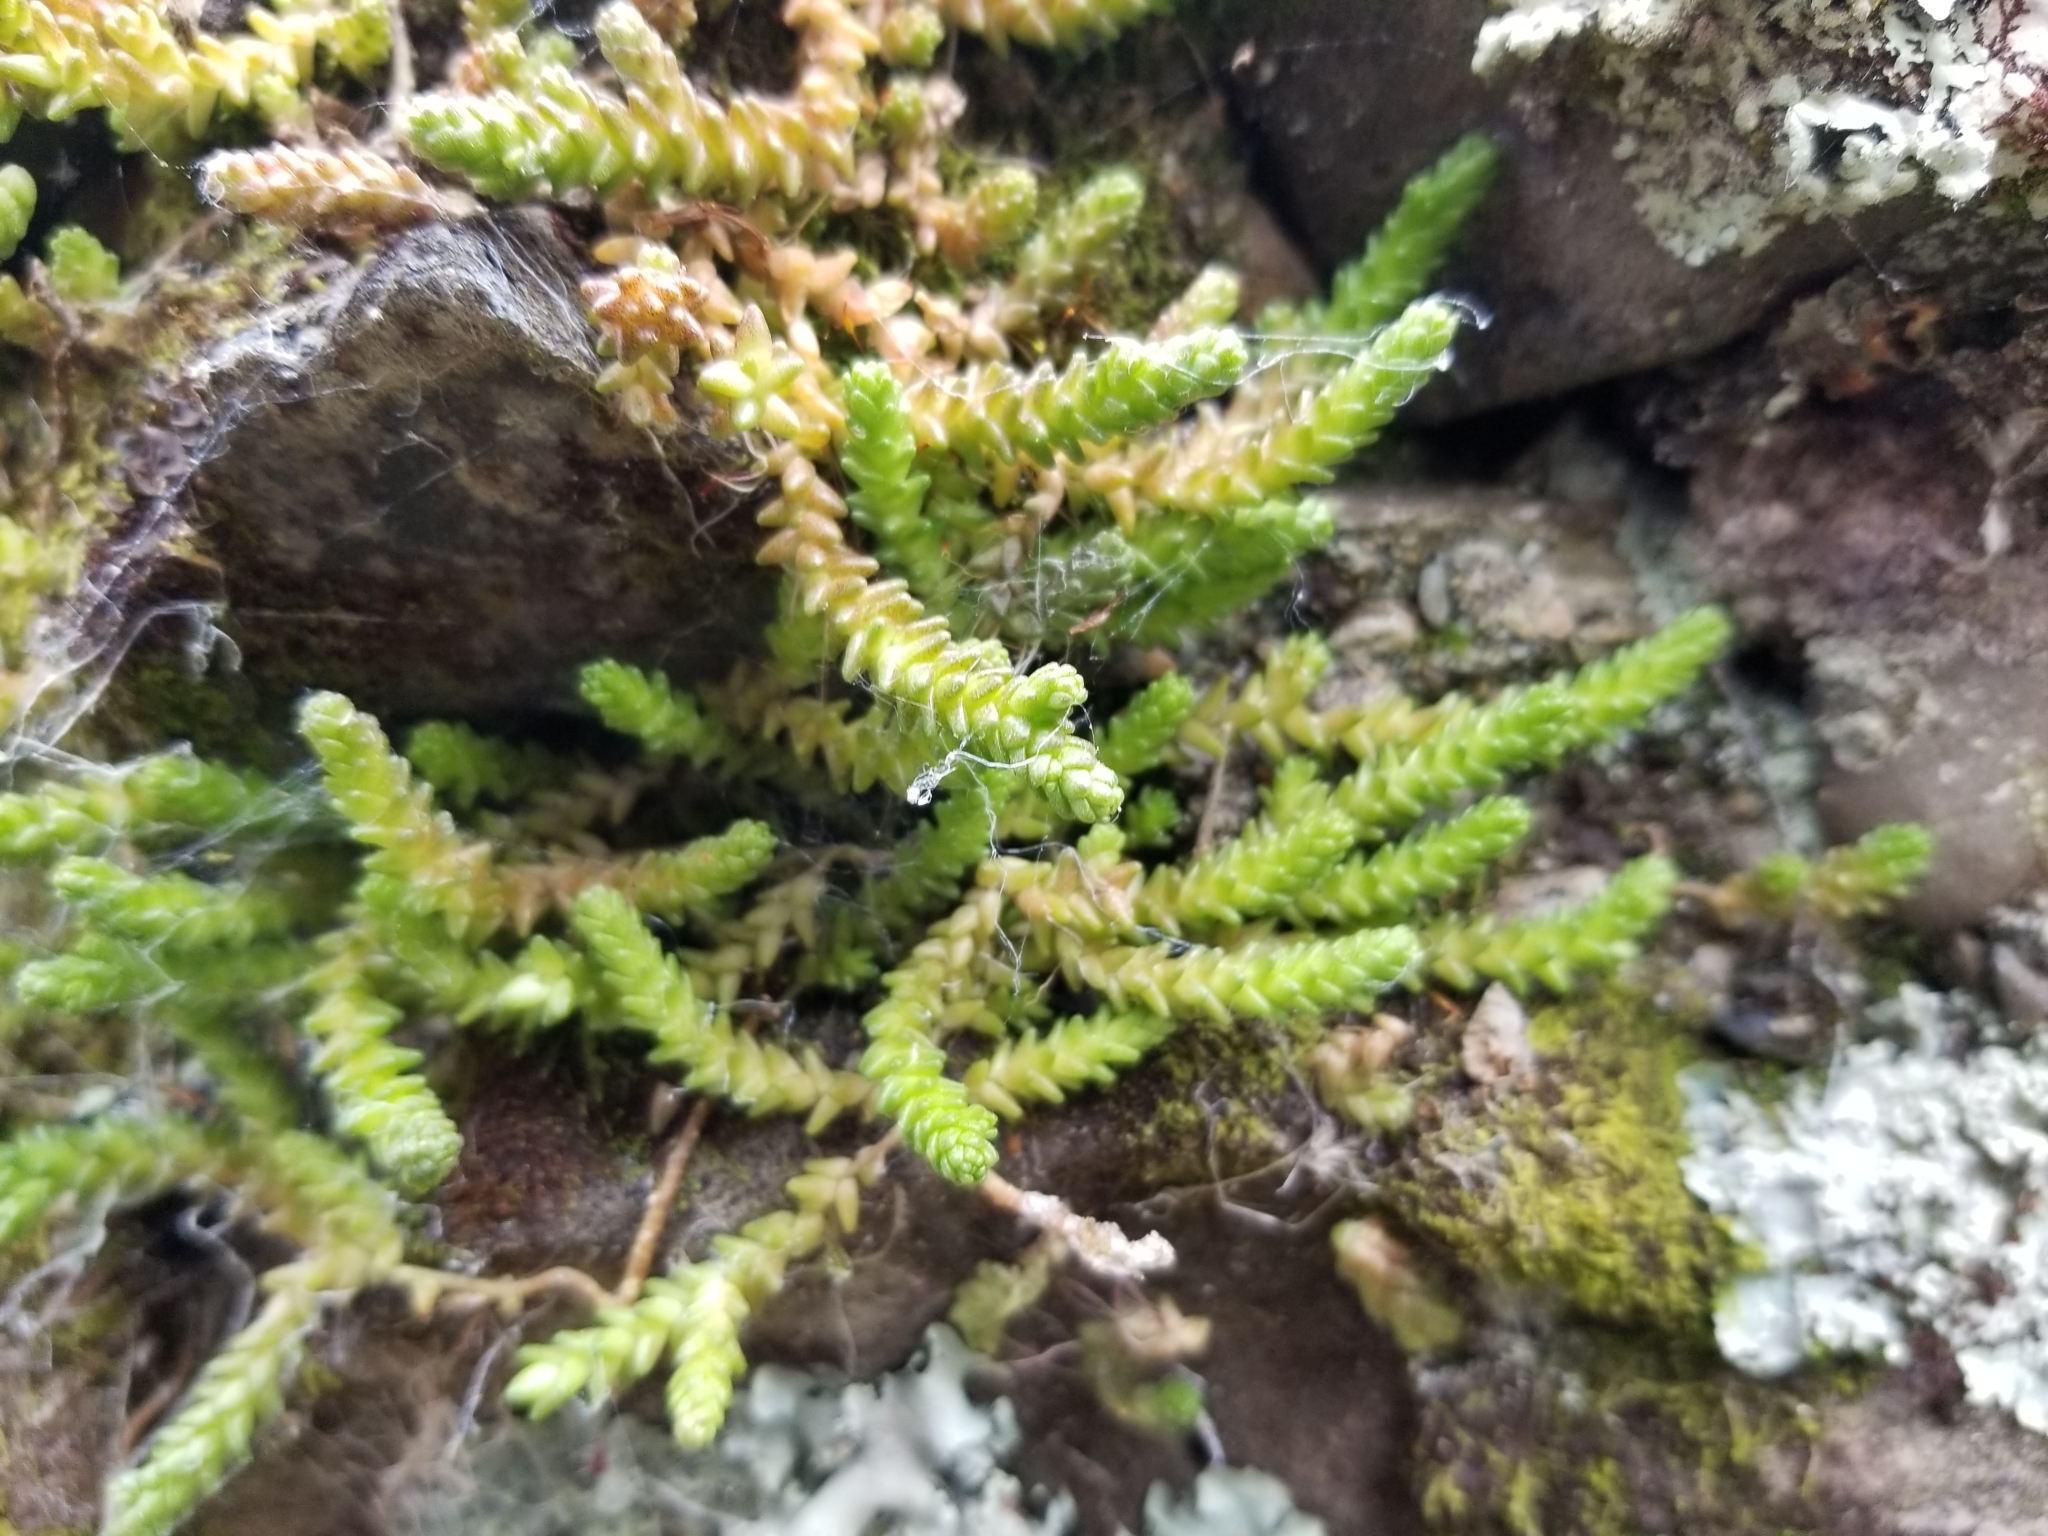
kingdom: Plantae
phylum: Tracheophyta
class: Magnoliopsida
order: Saxifragales
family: Crassulaceae
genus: Sedum
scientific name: Sedum acre
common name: Biting stonecrop
